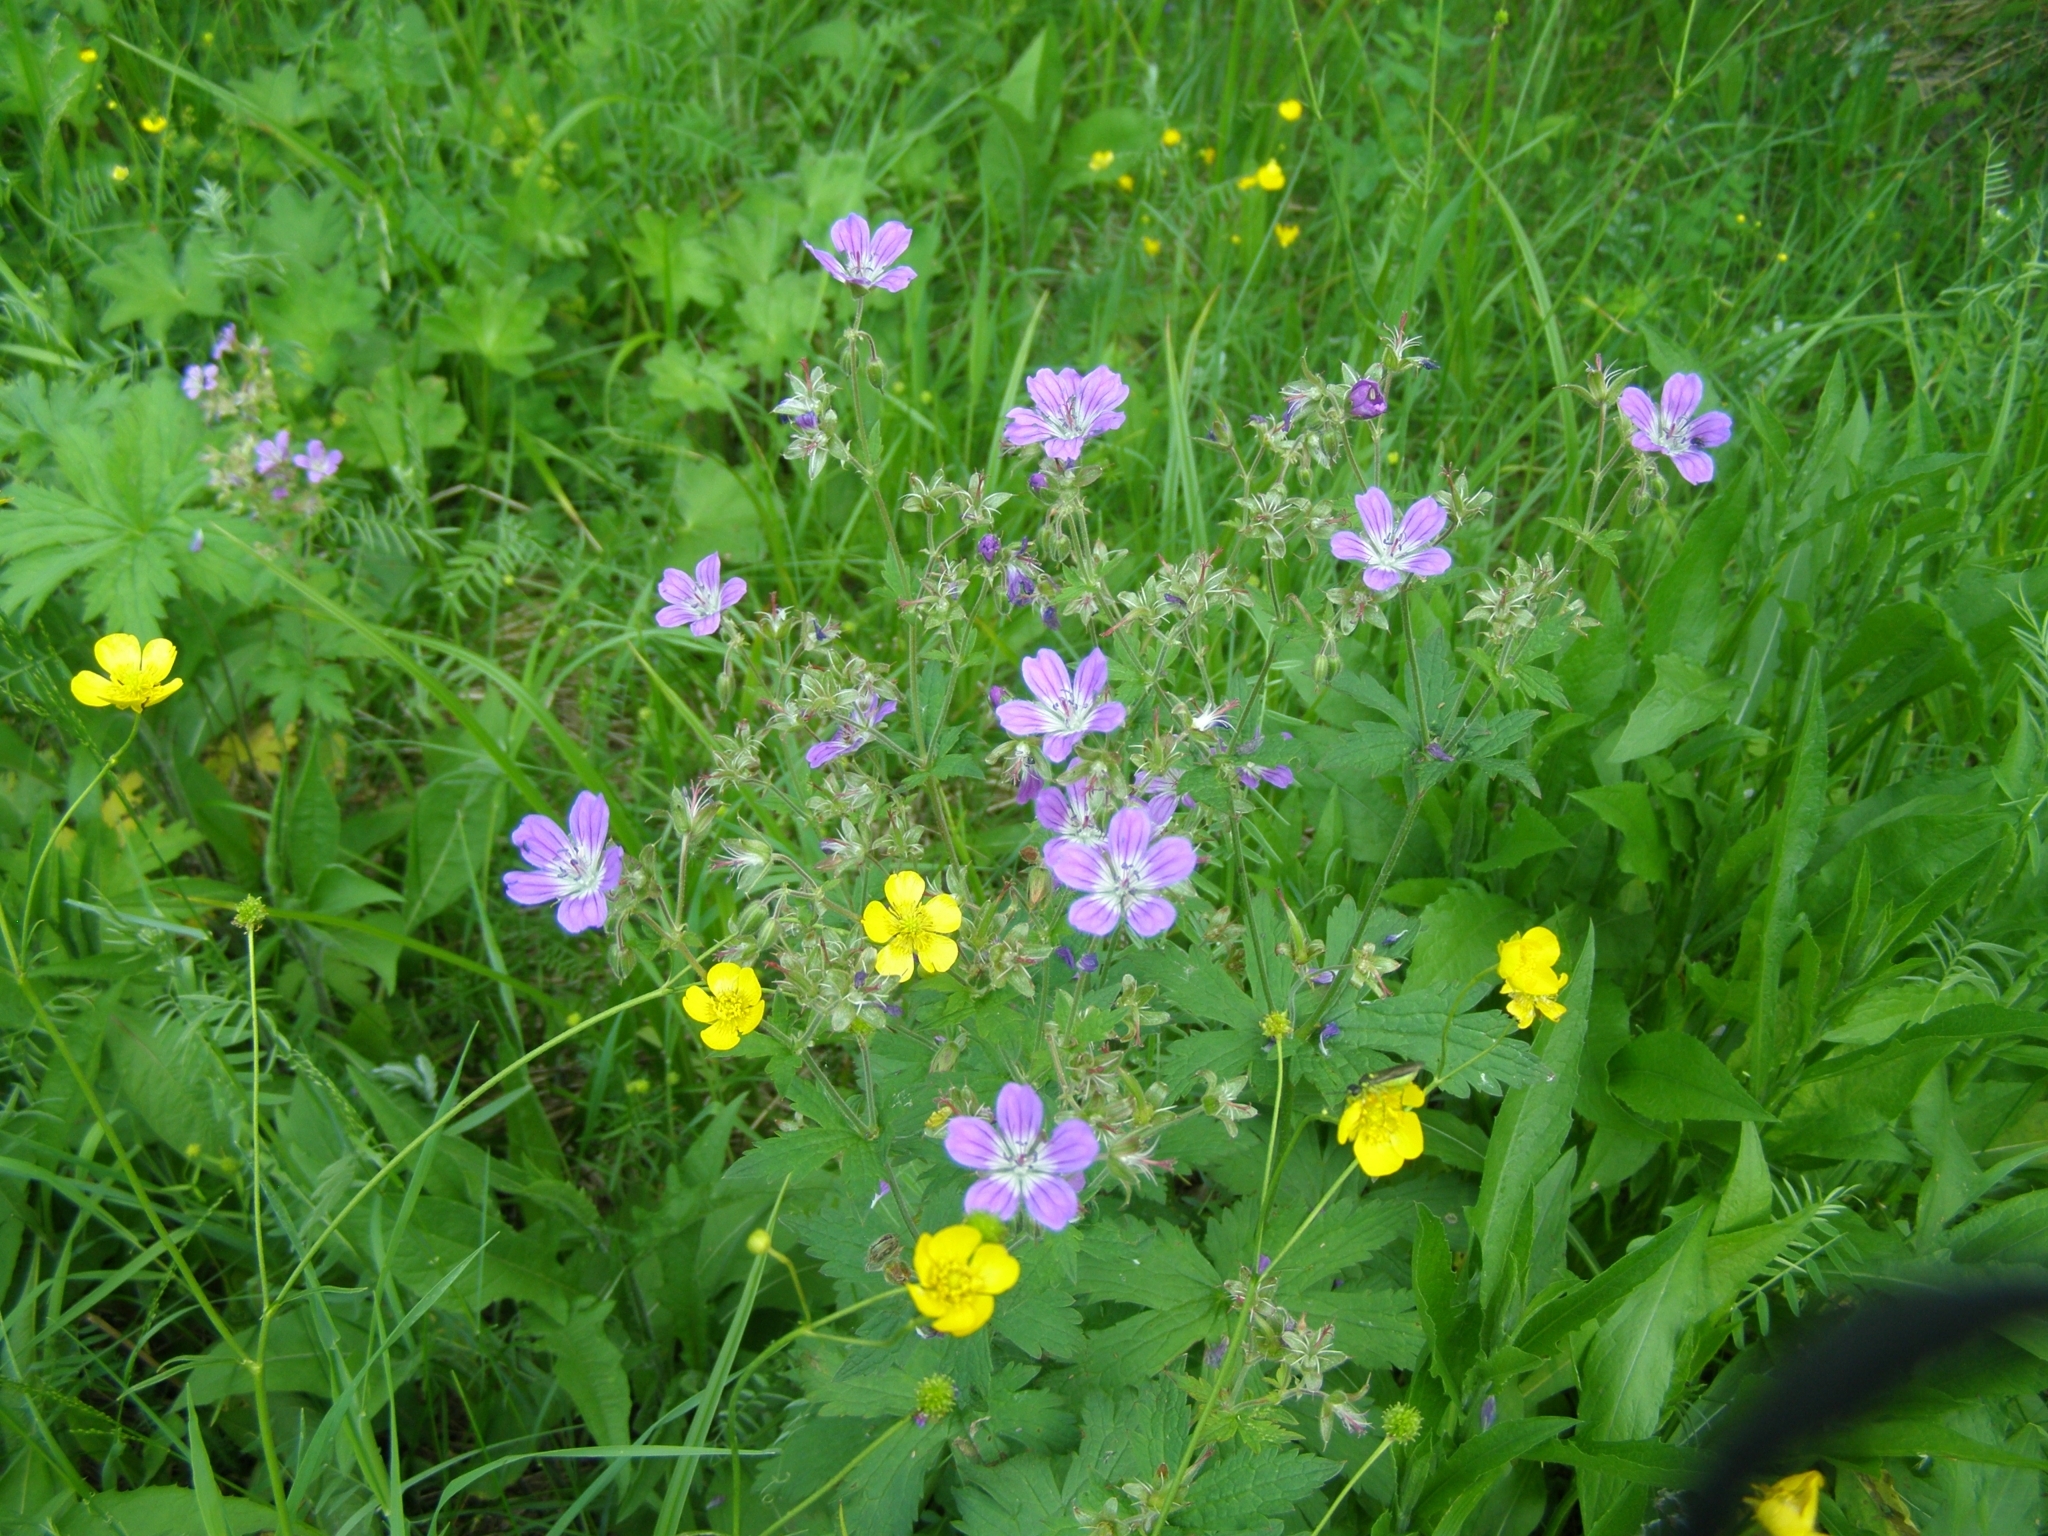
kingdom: Plantae
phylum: Tracheophyta
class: Magnoliopsida
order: Geraniales
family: Geraniaceae
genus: Geranium
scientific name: Geranium sylvaticum
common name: Wood crane's-bill
